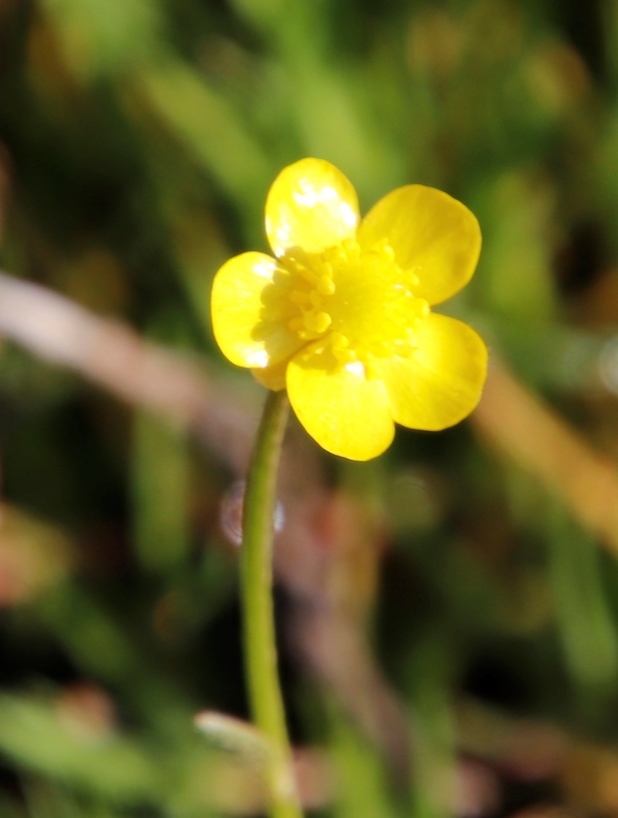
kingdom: Plantae
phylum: Tracheophyta
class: Magnoliopsida
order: Ranunculales
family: Ranunculaceae
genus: Ranunculus
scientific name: Ranunculus multifidus
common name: Wild buttercup
